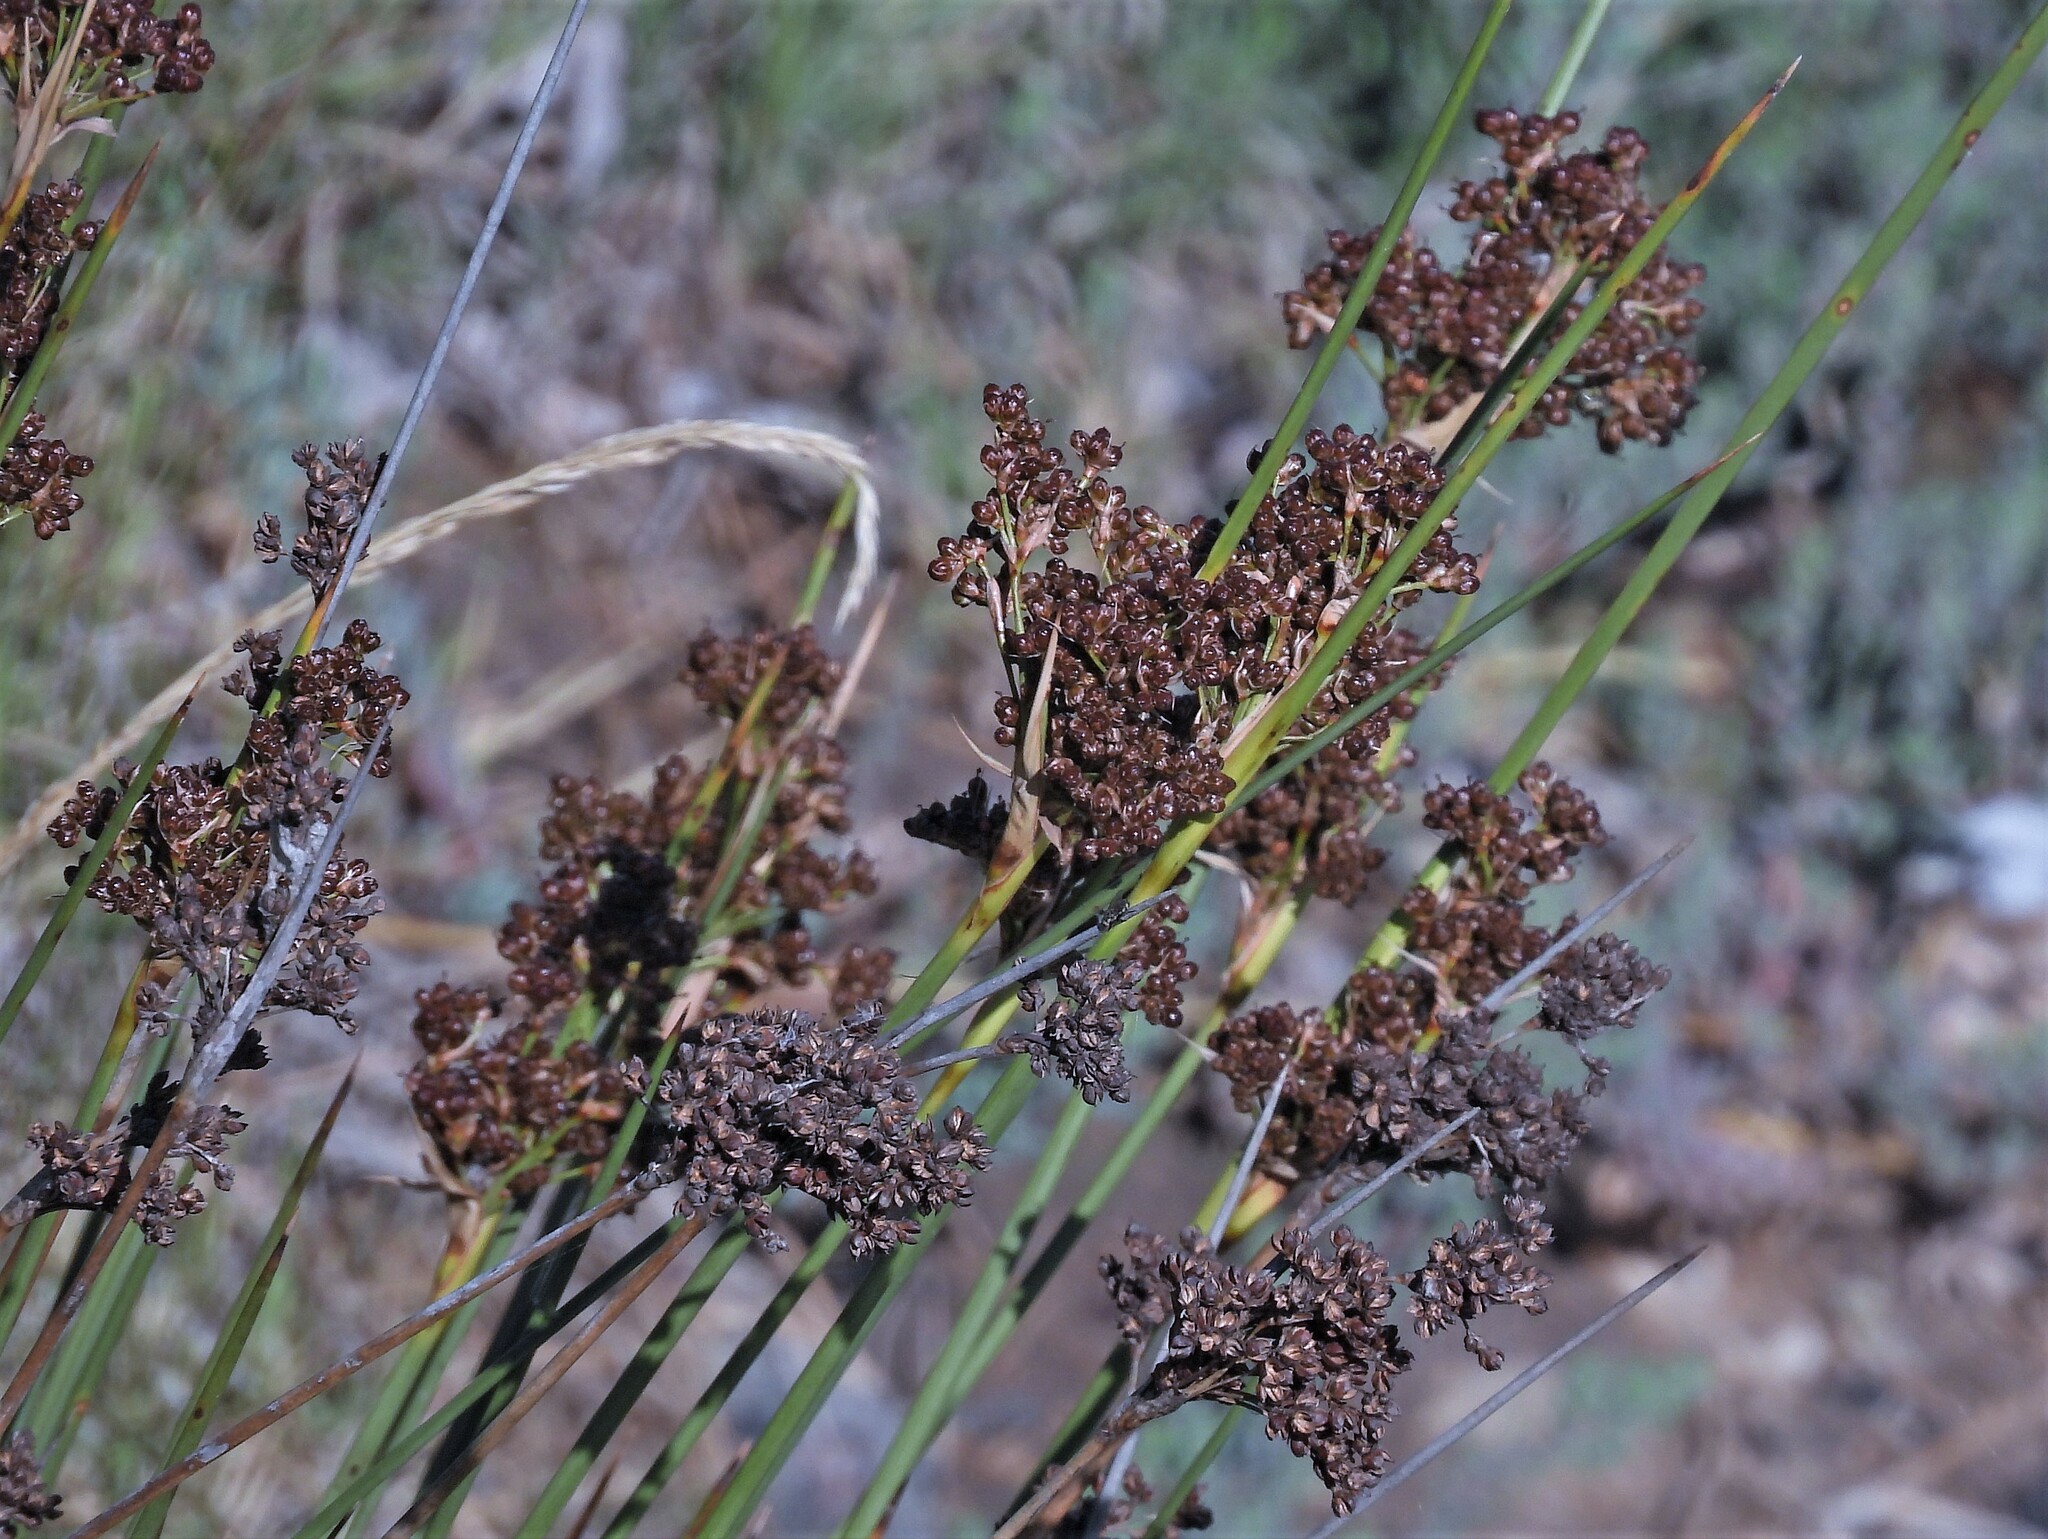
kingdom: Plantae
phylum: Tracheophyta
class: Liliopsida
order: Poales
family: Juncaceae
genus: Juncus
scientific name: Juncus acutus
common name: Sharp rush
